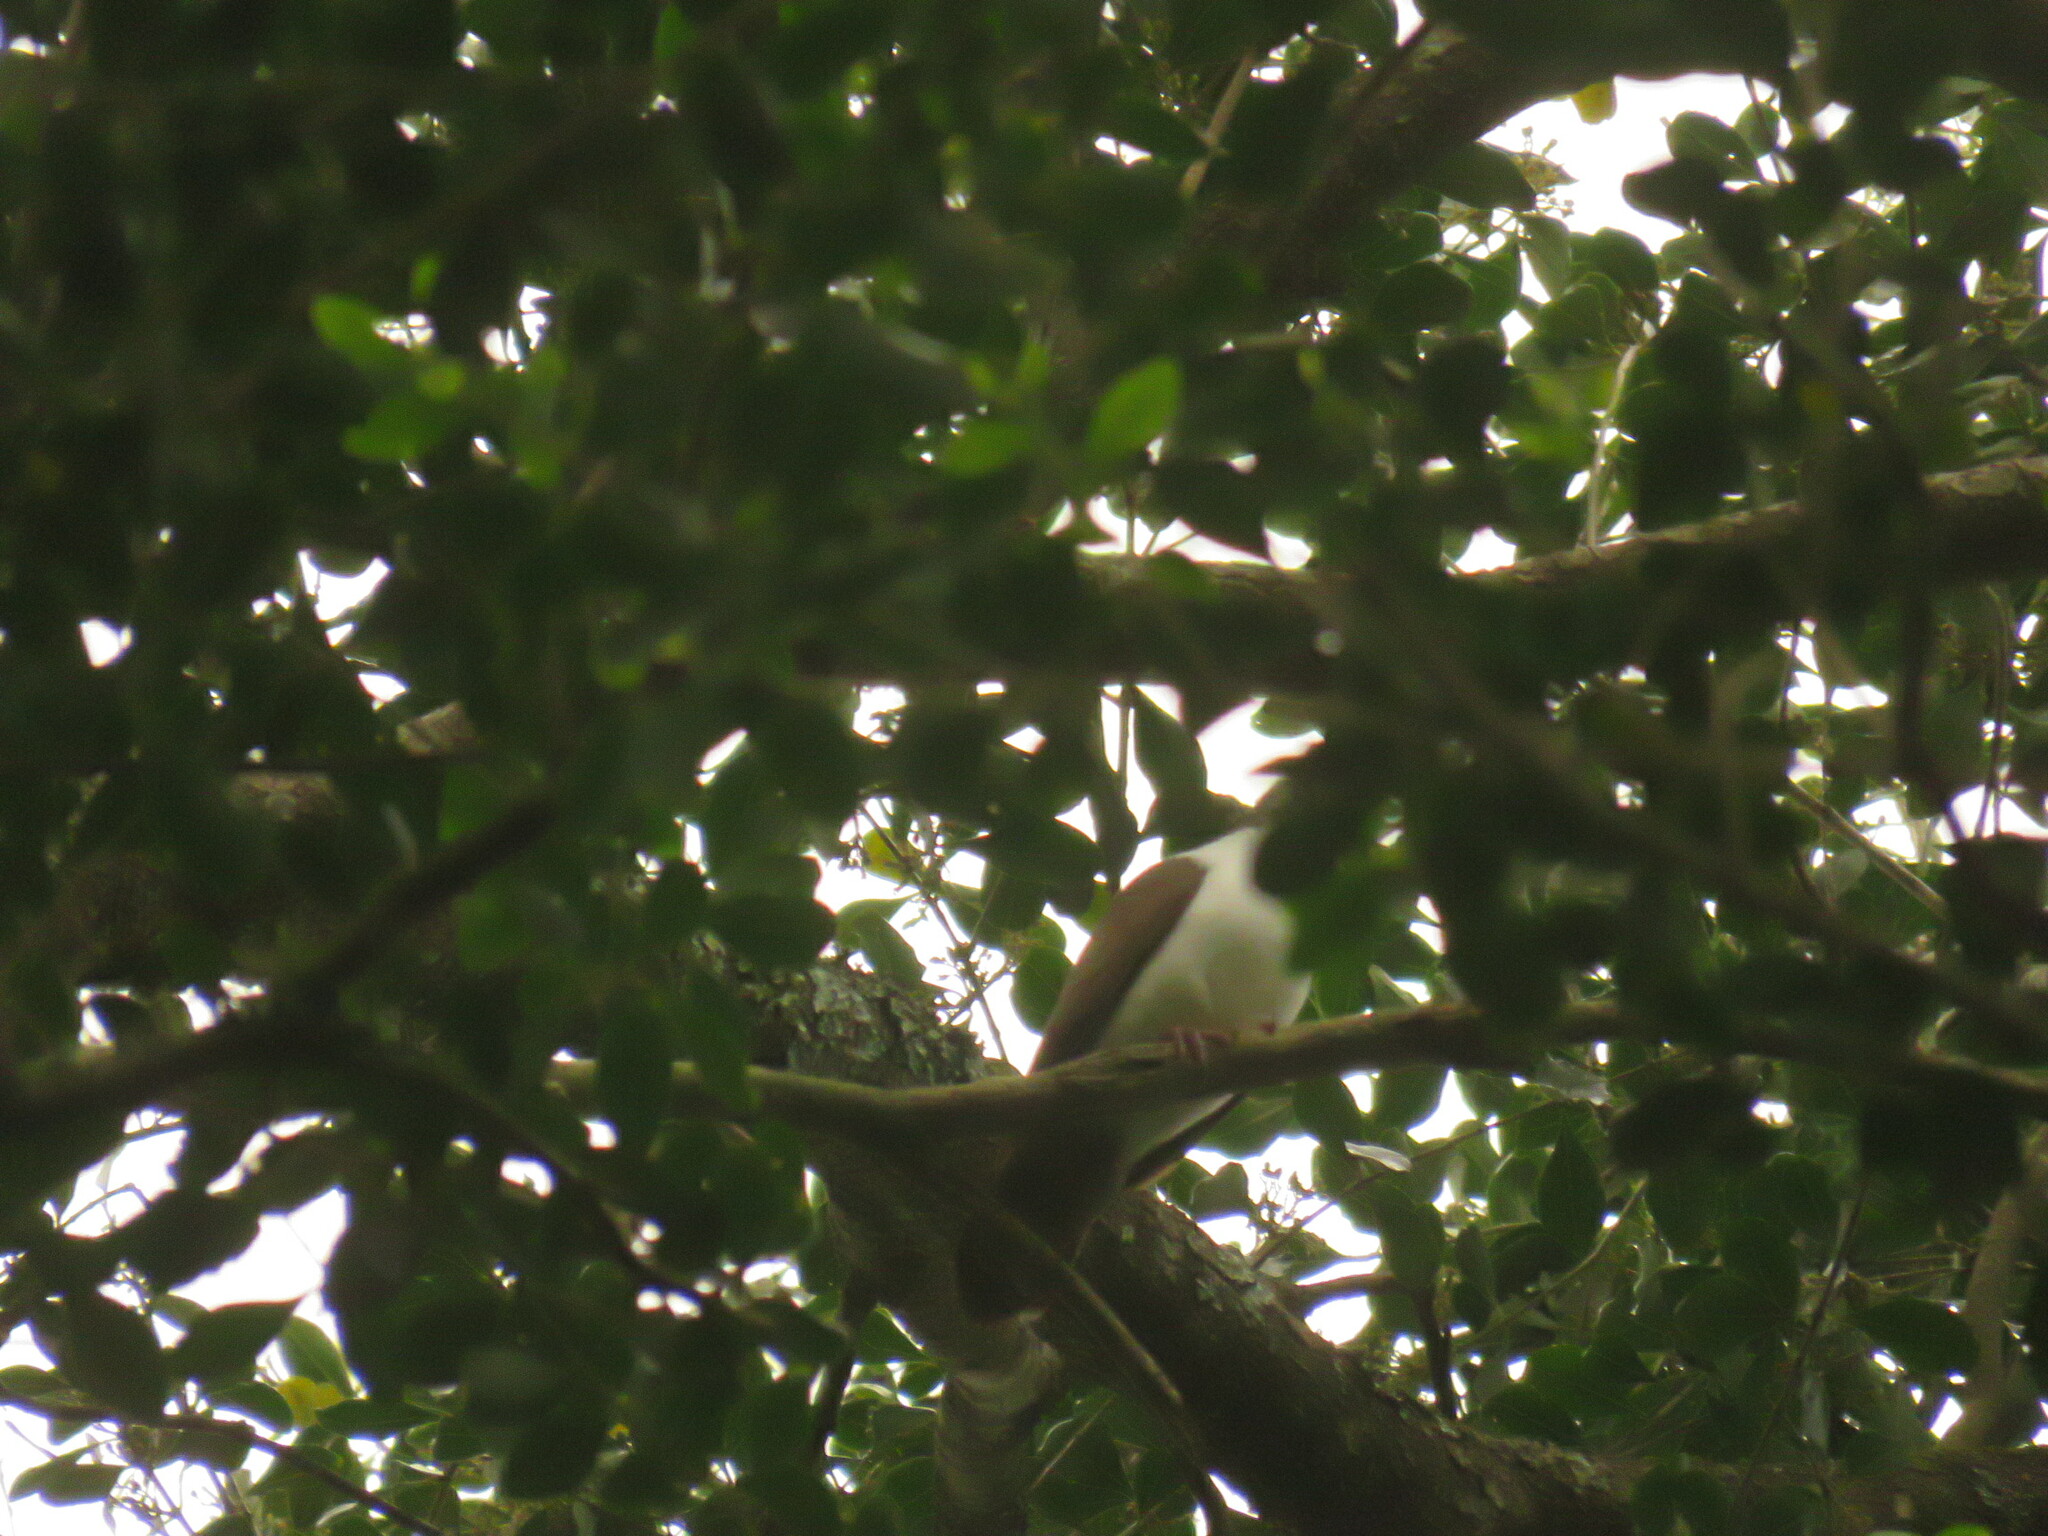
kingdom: Animalia
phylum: Chordata
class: Aves
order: Columbiformes
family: Columbidae
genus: Turtur
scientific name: Turtur tympanistria
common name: Tambourine dove
